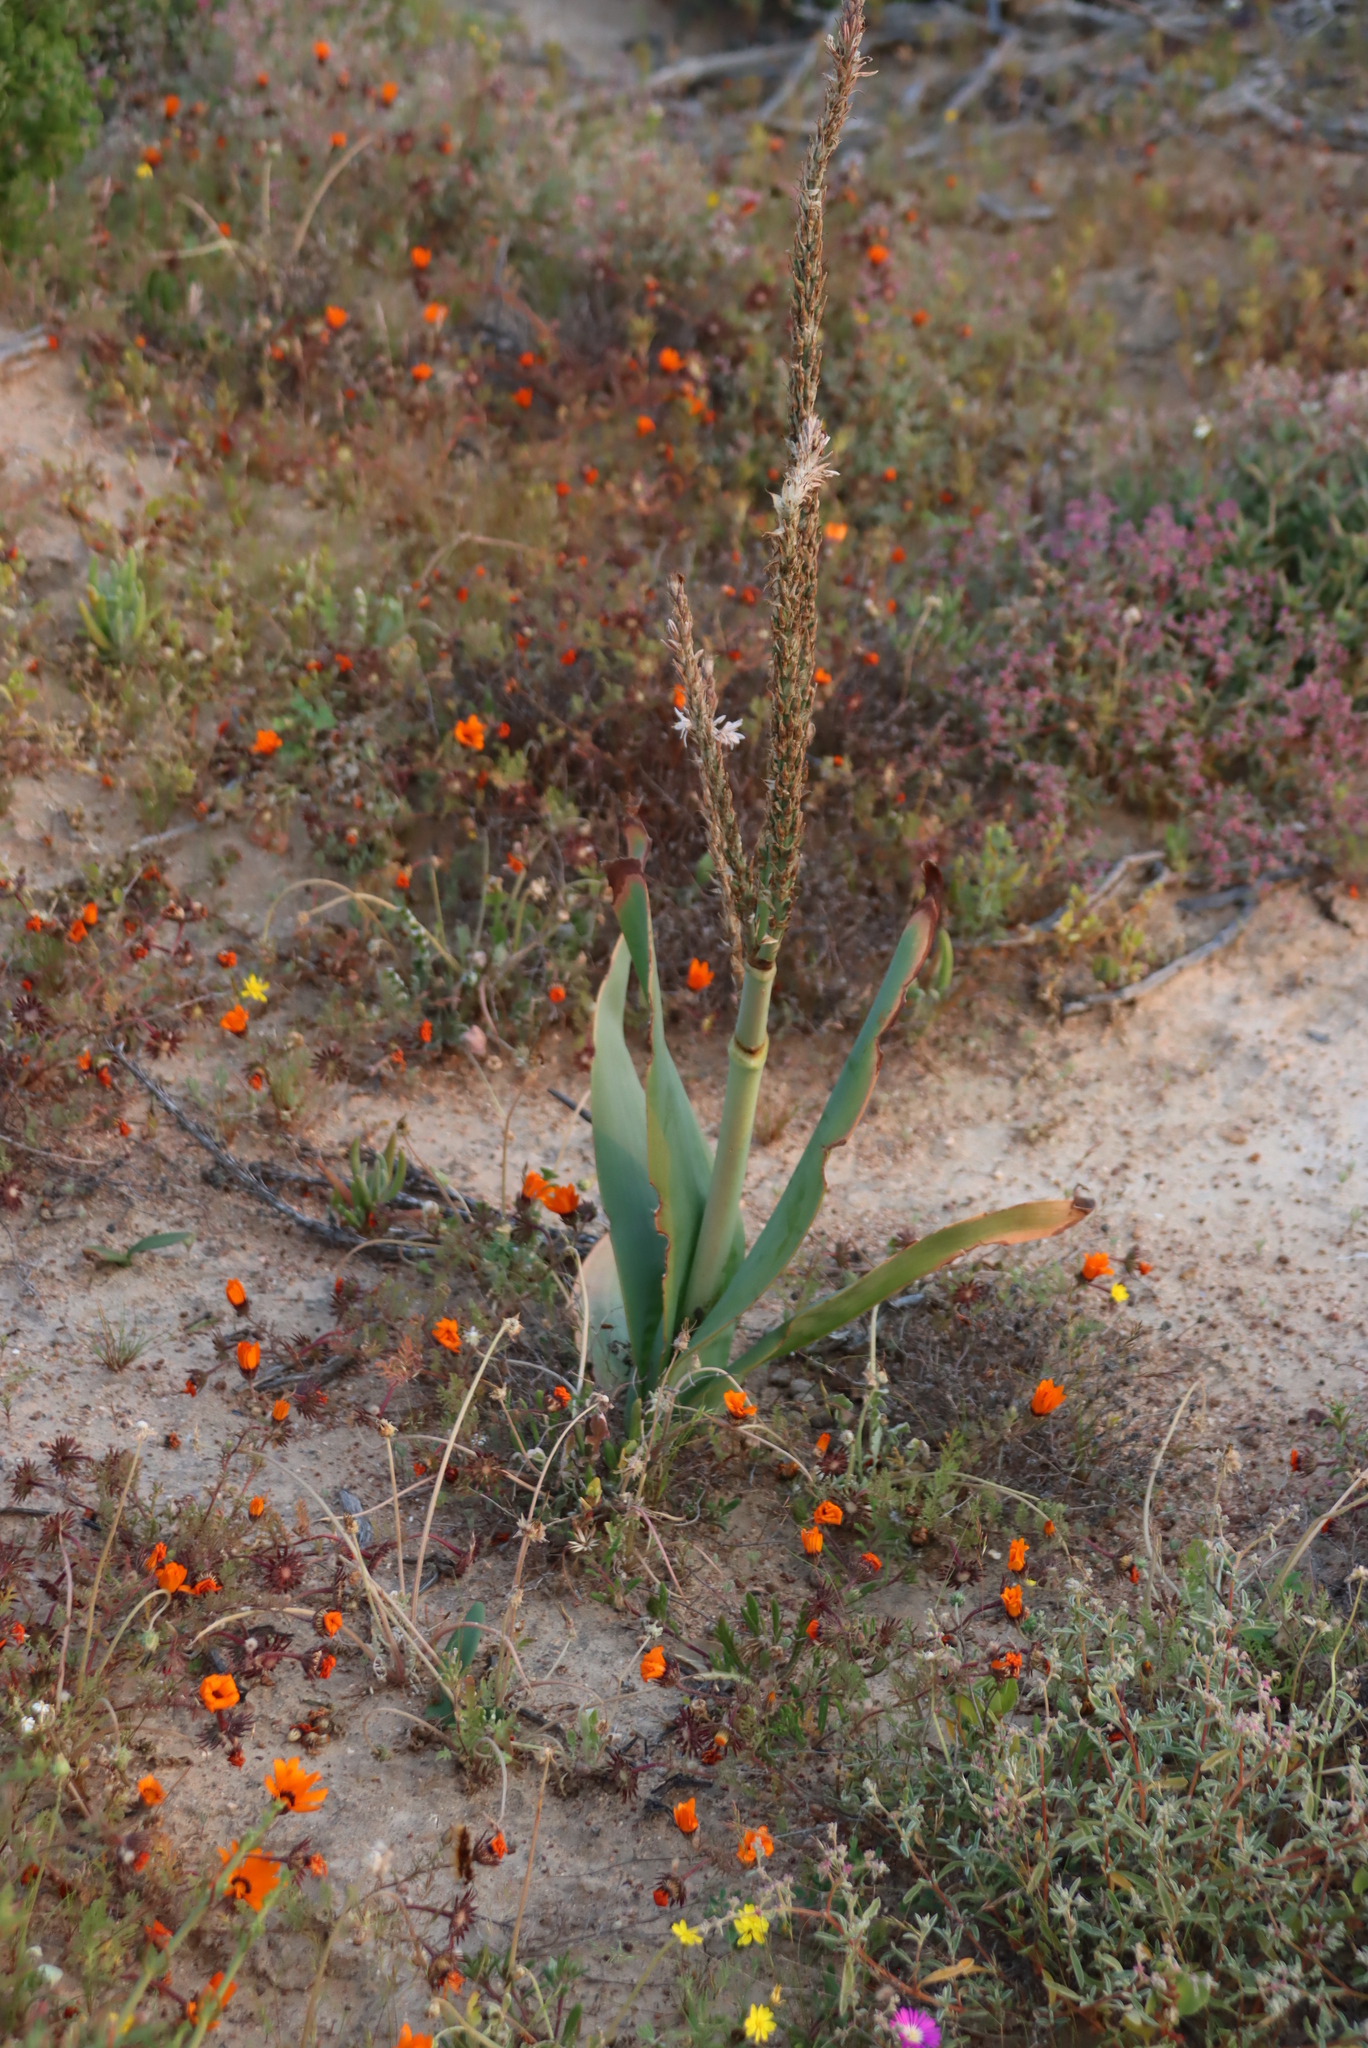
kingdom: Plantae
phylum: Tracheophyta
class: Liliopsida
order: Asparagales
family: Asphodelaceae
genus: Trachyandra
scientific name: Trachyandra falcata
